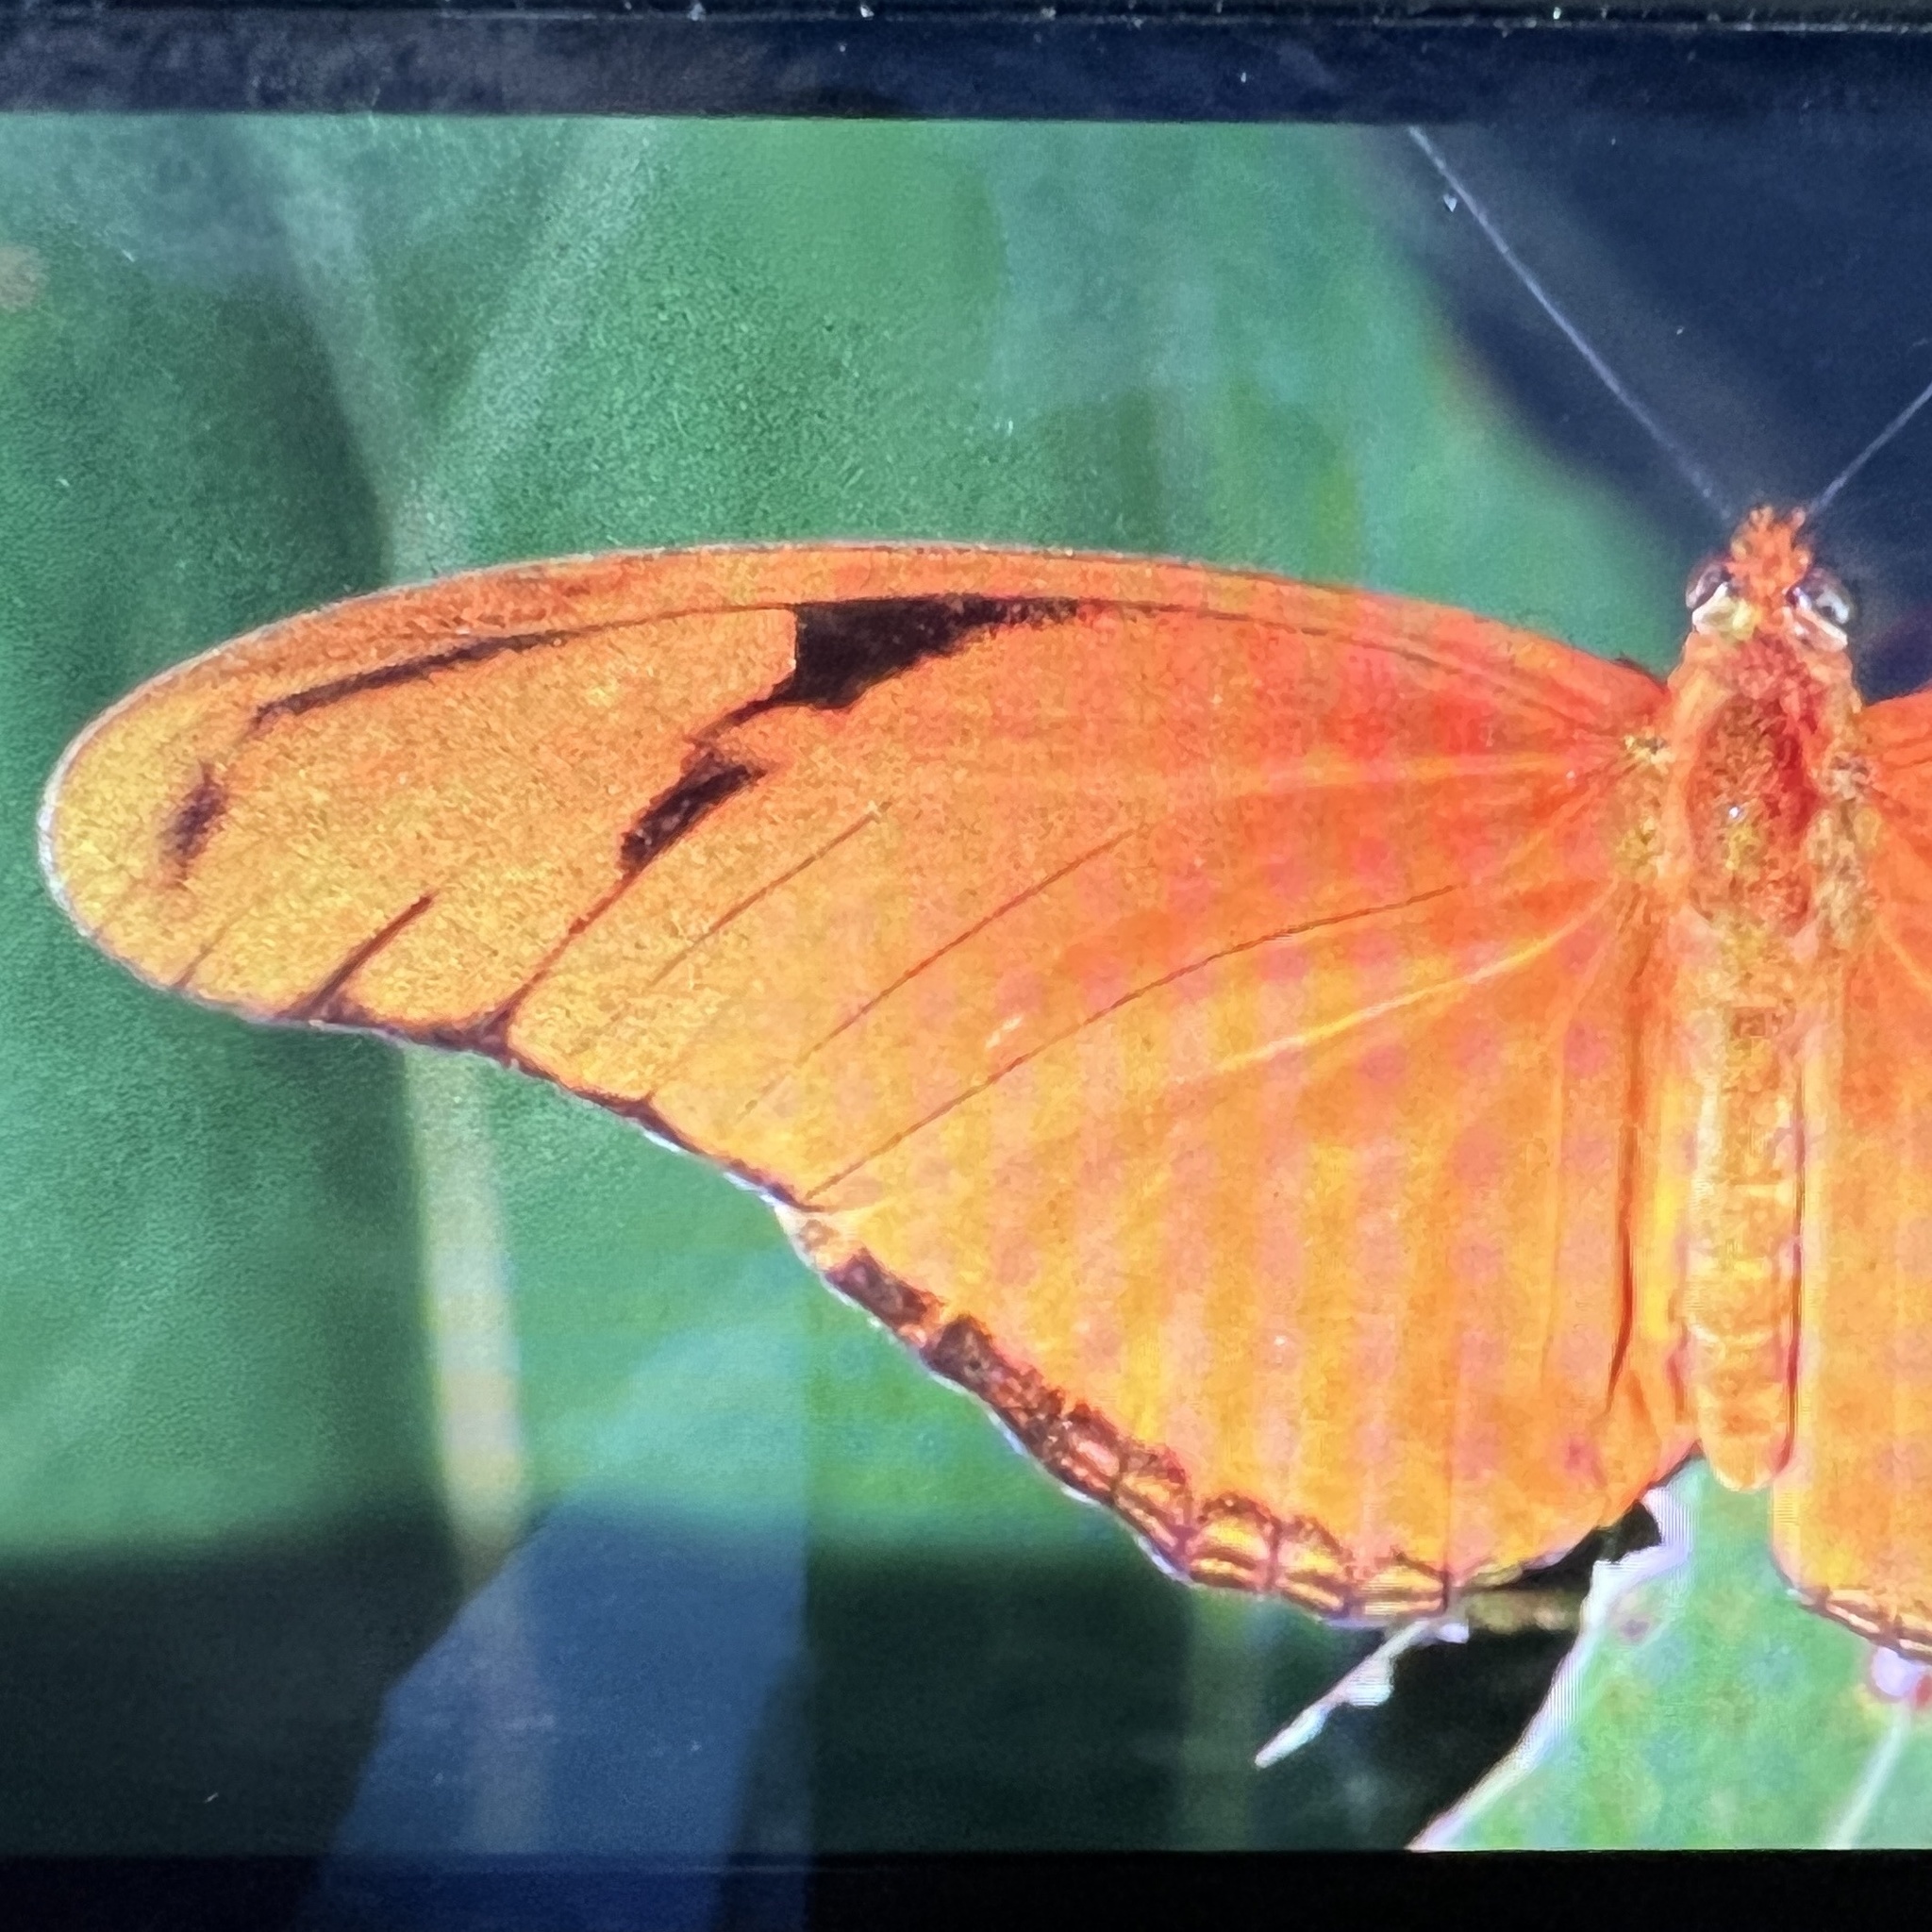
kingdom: Animalia
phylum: Arthropoda
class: Insecta
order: Lepidoptera
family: Nymphalidae
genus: Dryas
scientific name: Dryas iulia
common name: Flambeau
